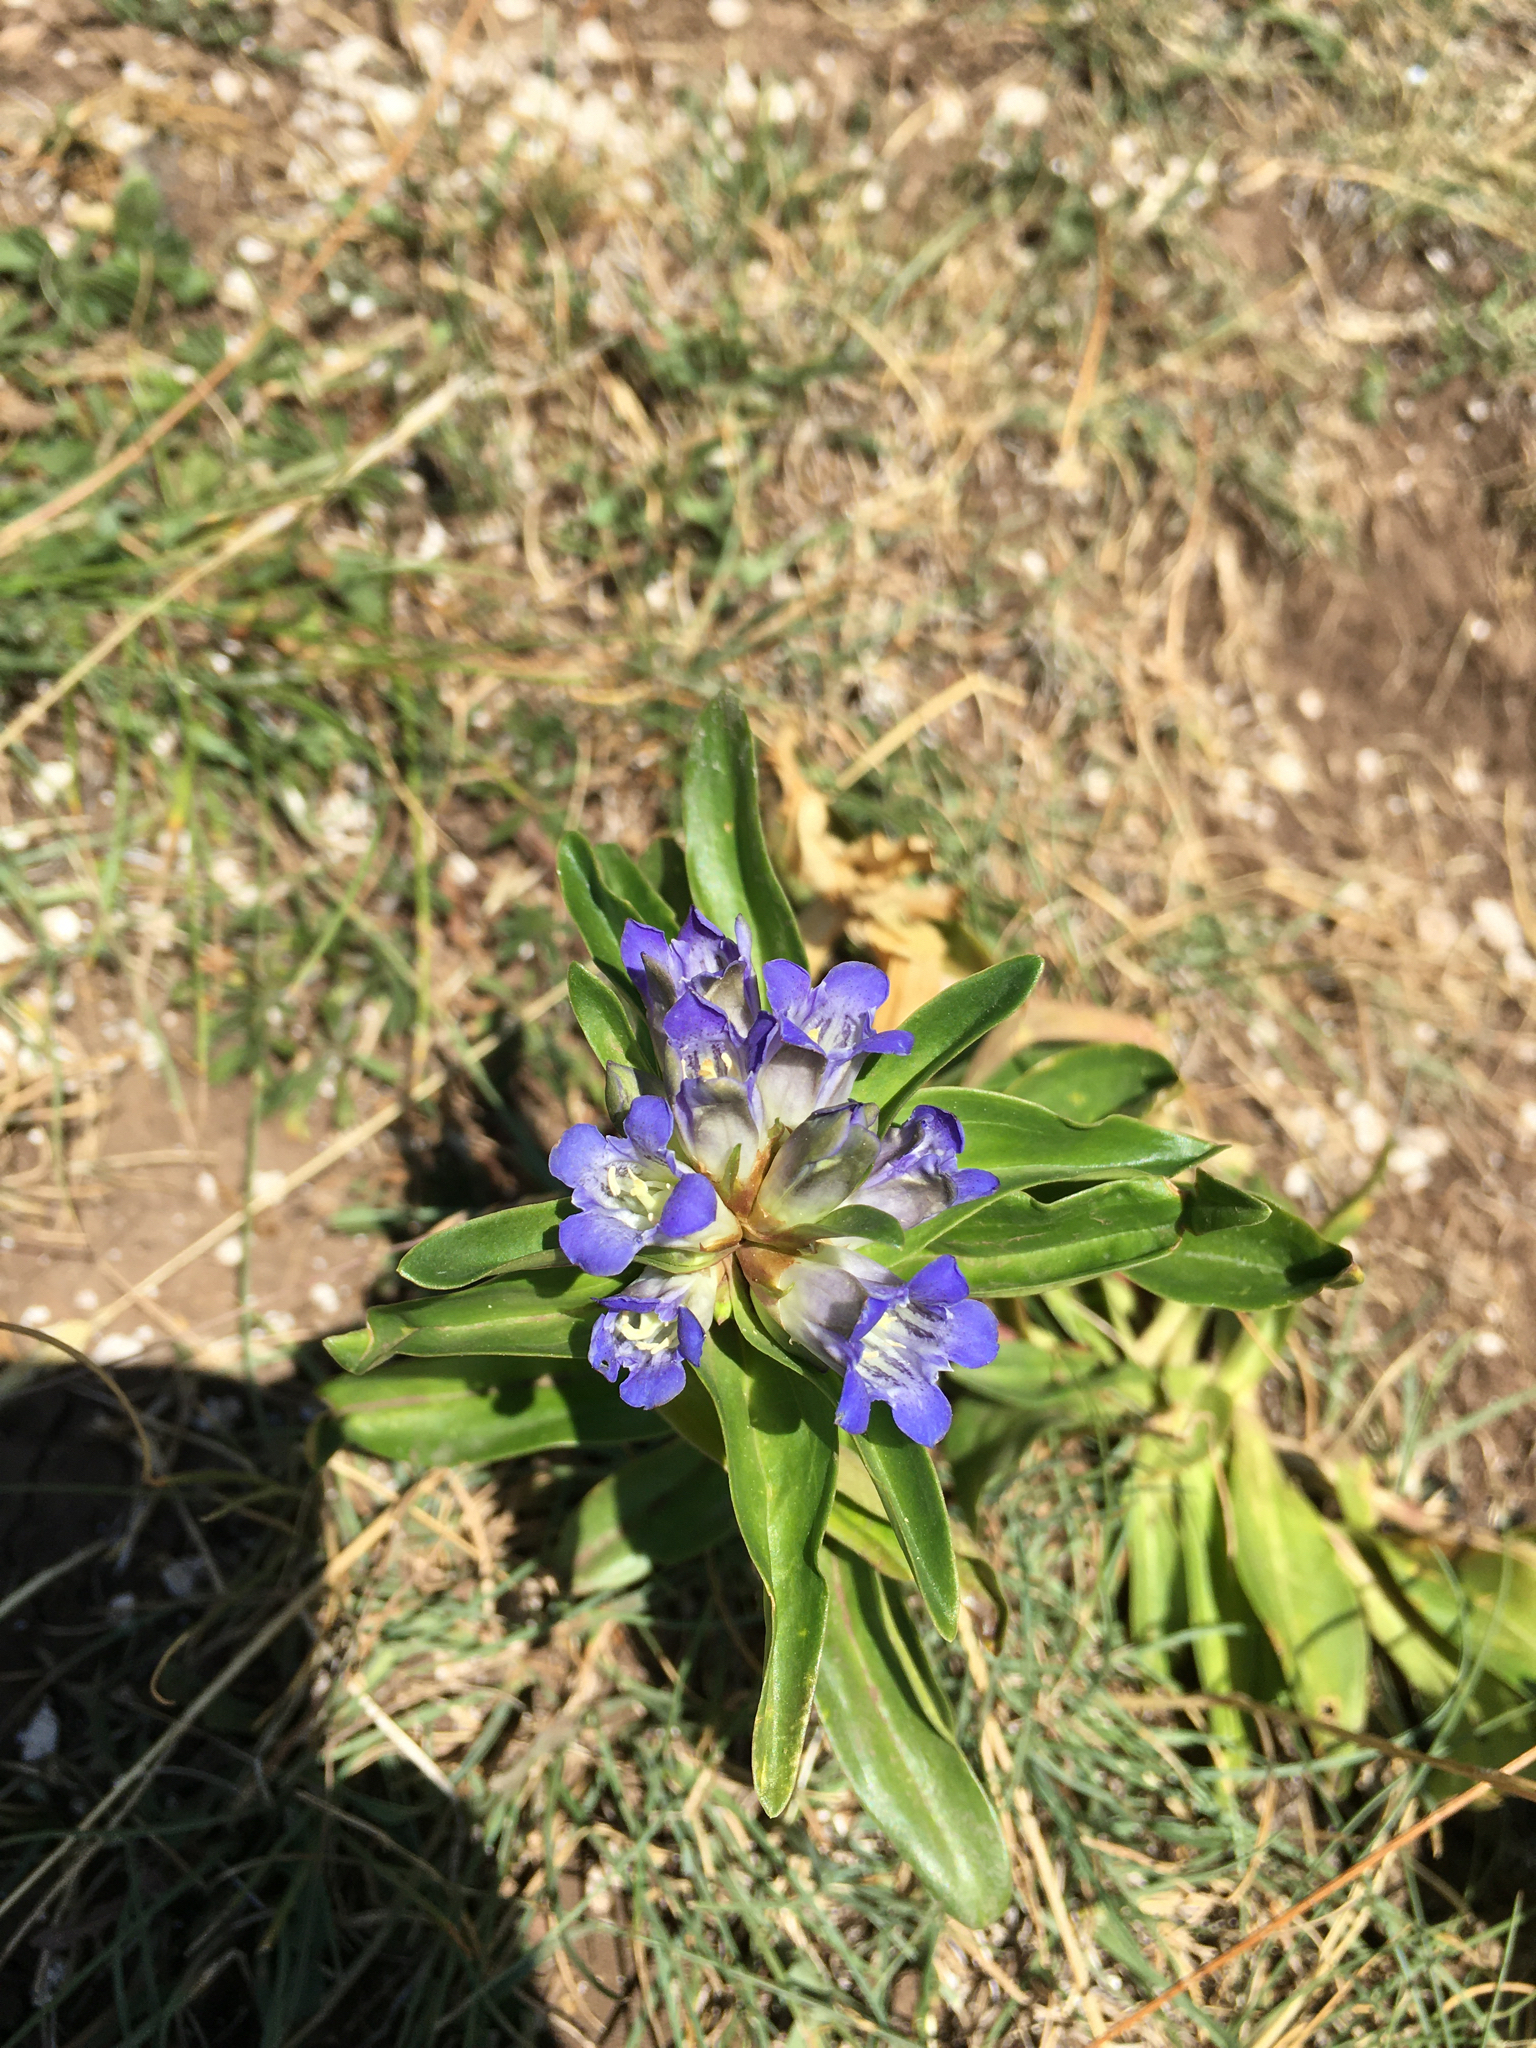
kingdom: Plantae
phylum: Tracheophyta
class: Magnoliopsida
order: Gentianales
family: Gentianaceae
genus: Gentiana
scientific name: Gentiana cruciata
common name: Cross gentian
